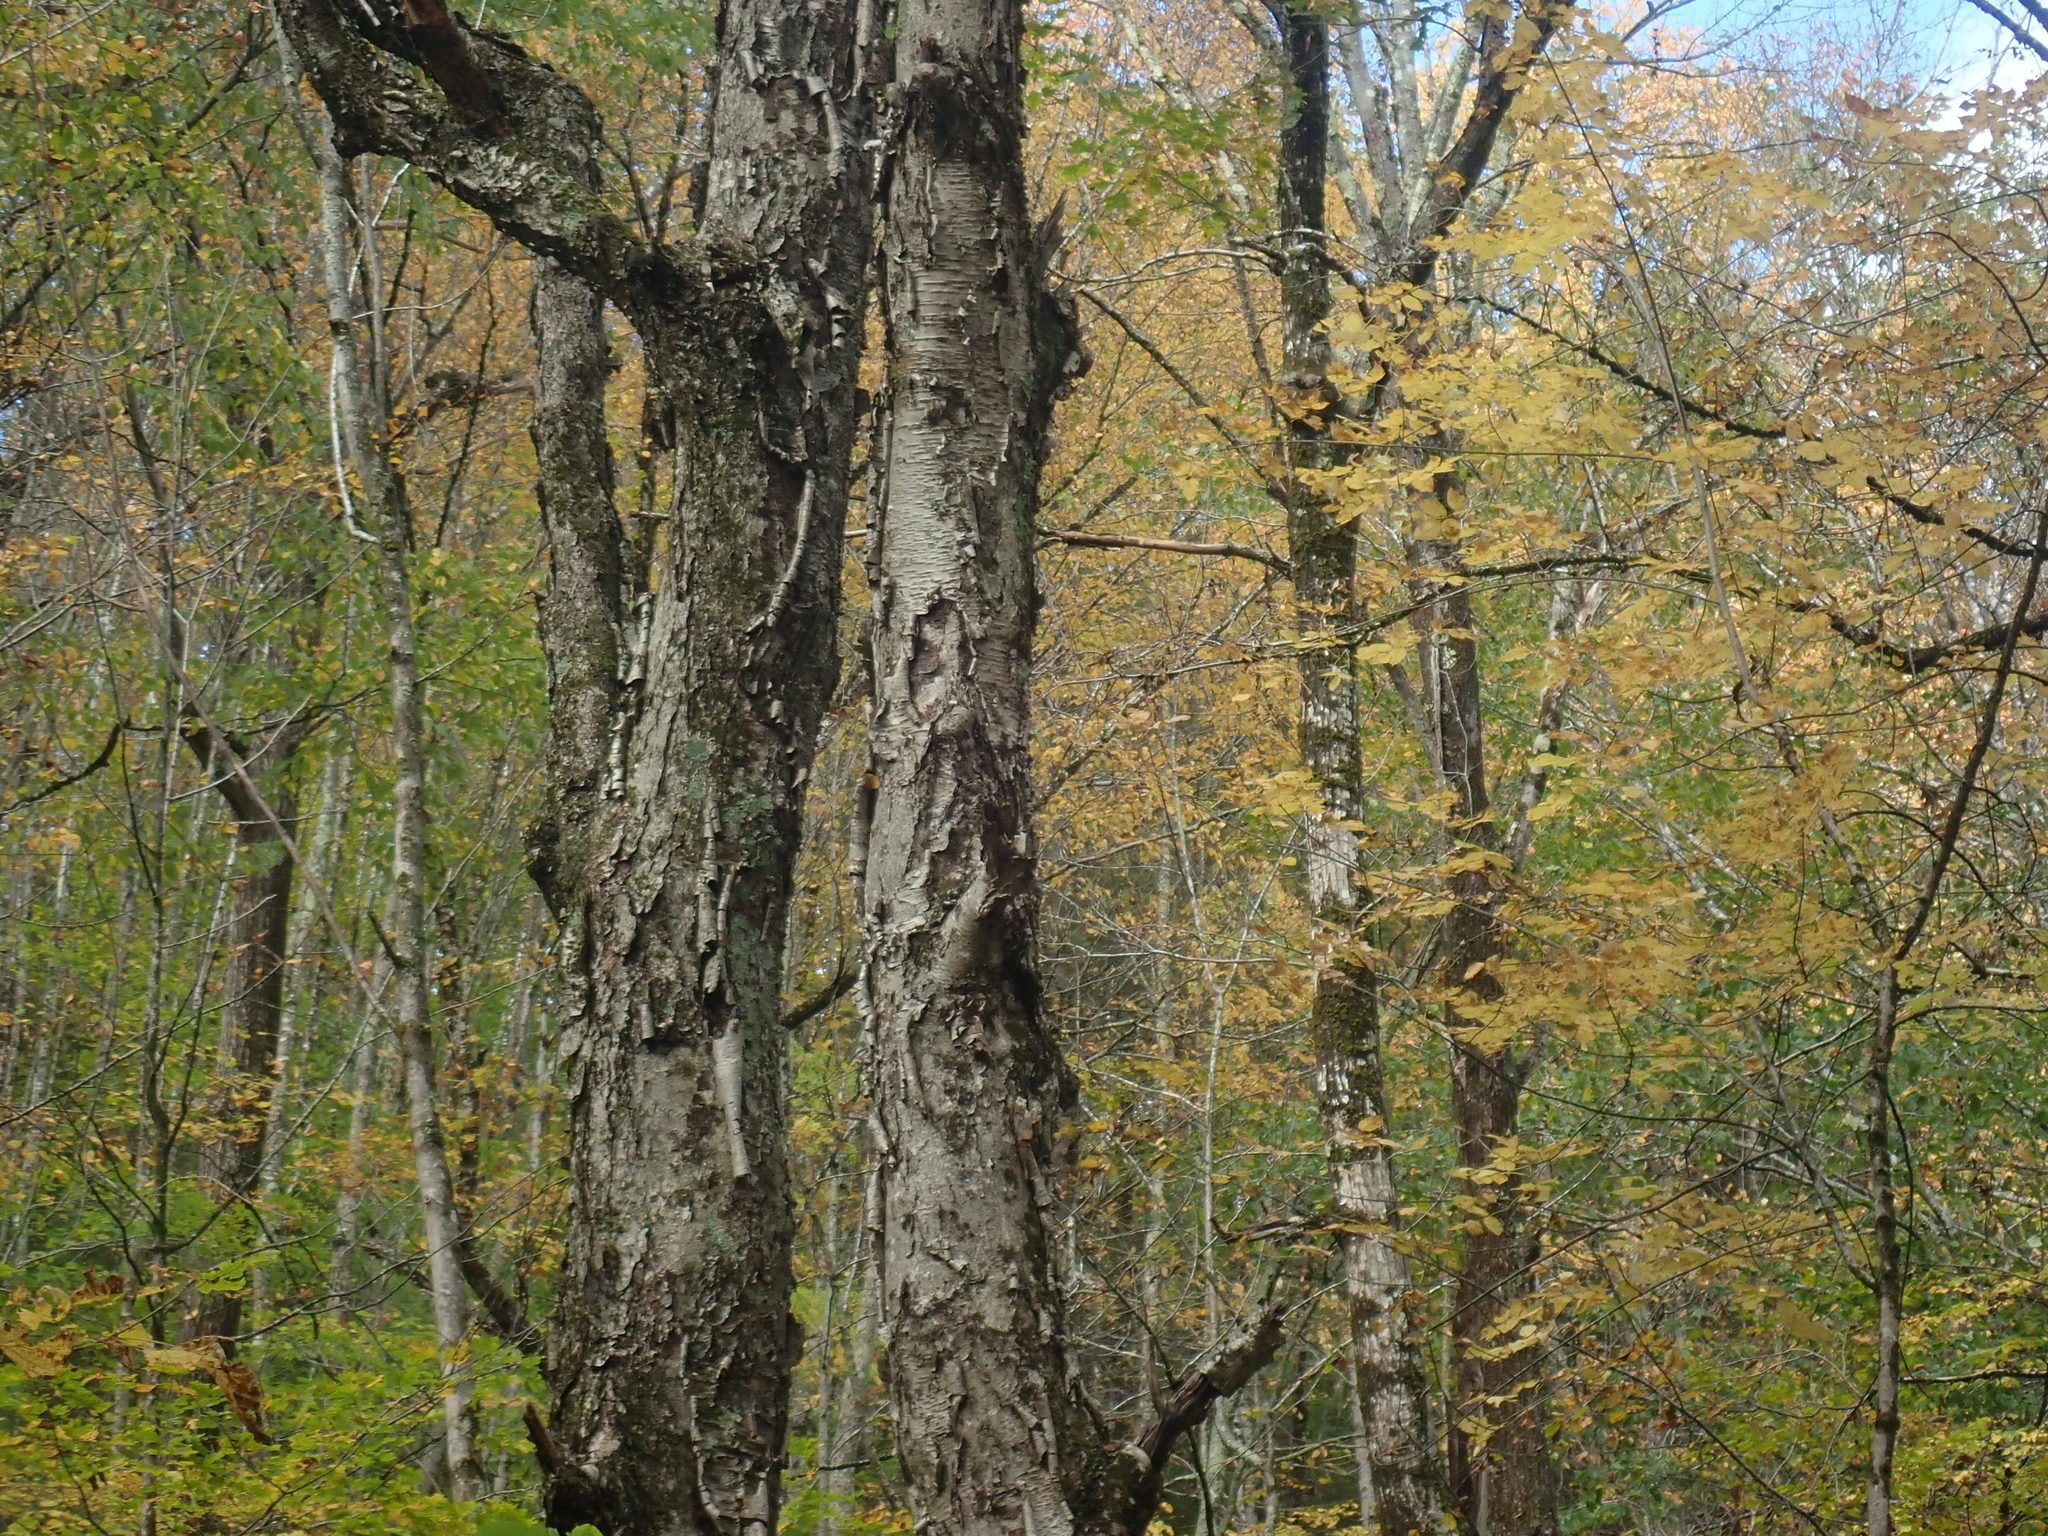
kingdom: Plantae
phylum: Tracheophyta
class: Magnoliopsida
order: Fagales
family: Betulaceae
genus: Betula
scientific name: Betula alleghaniensis
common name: Yellow birch
